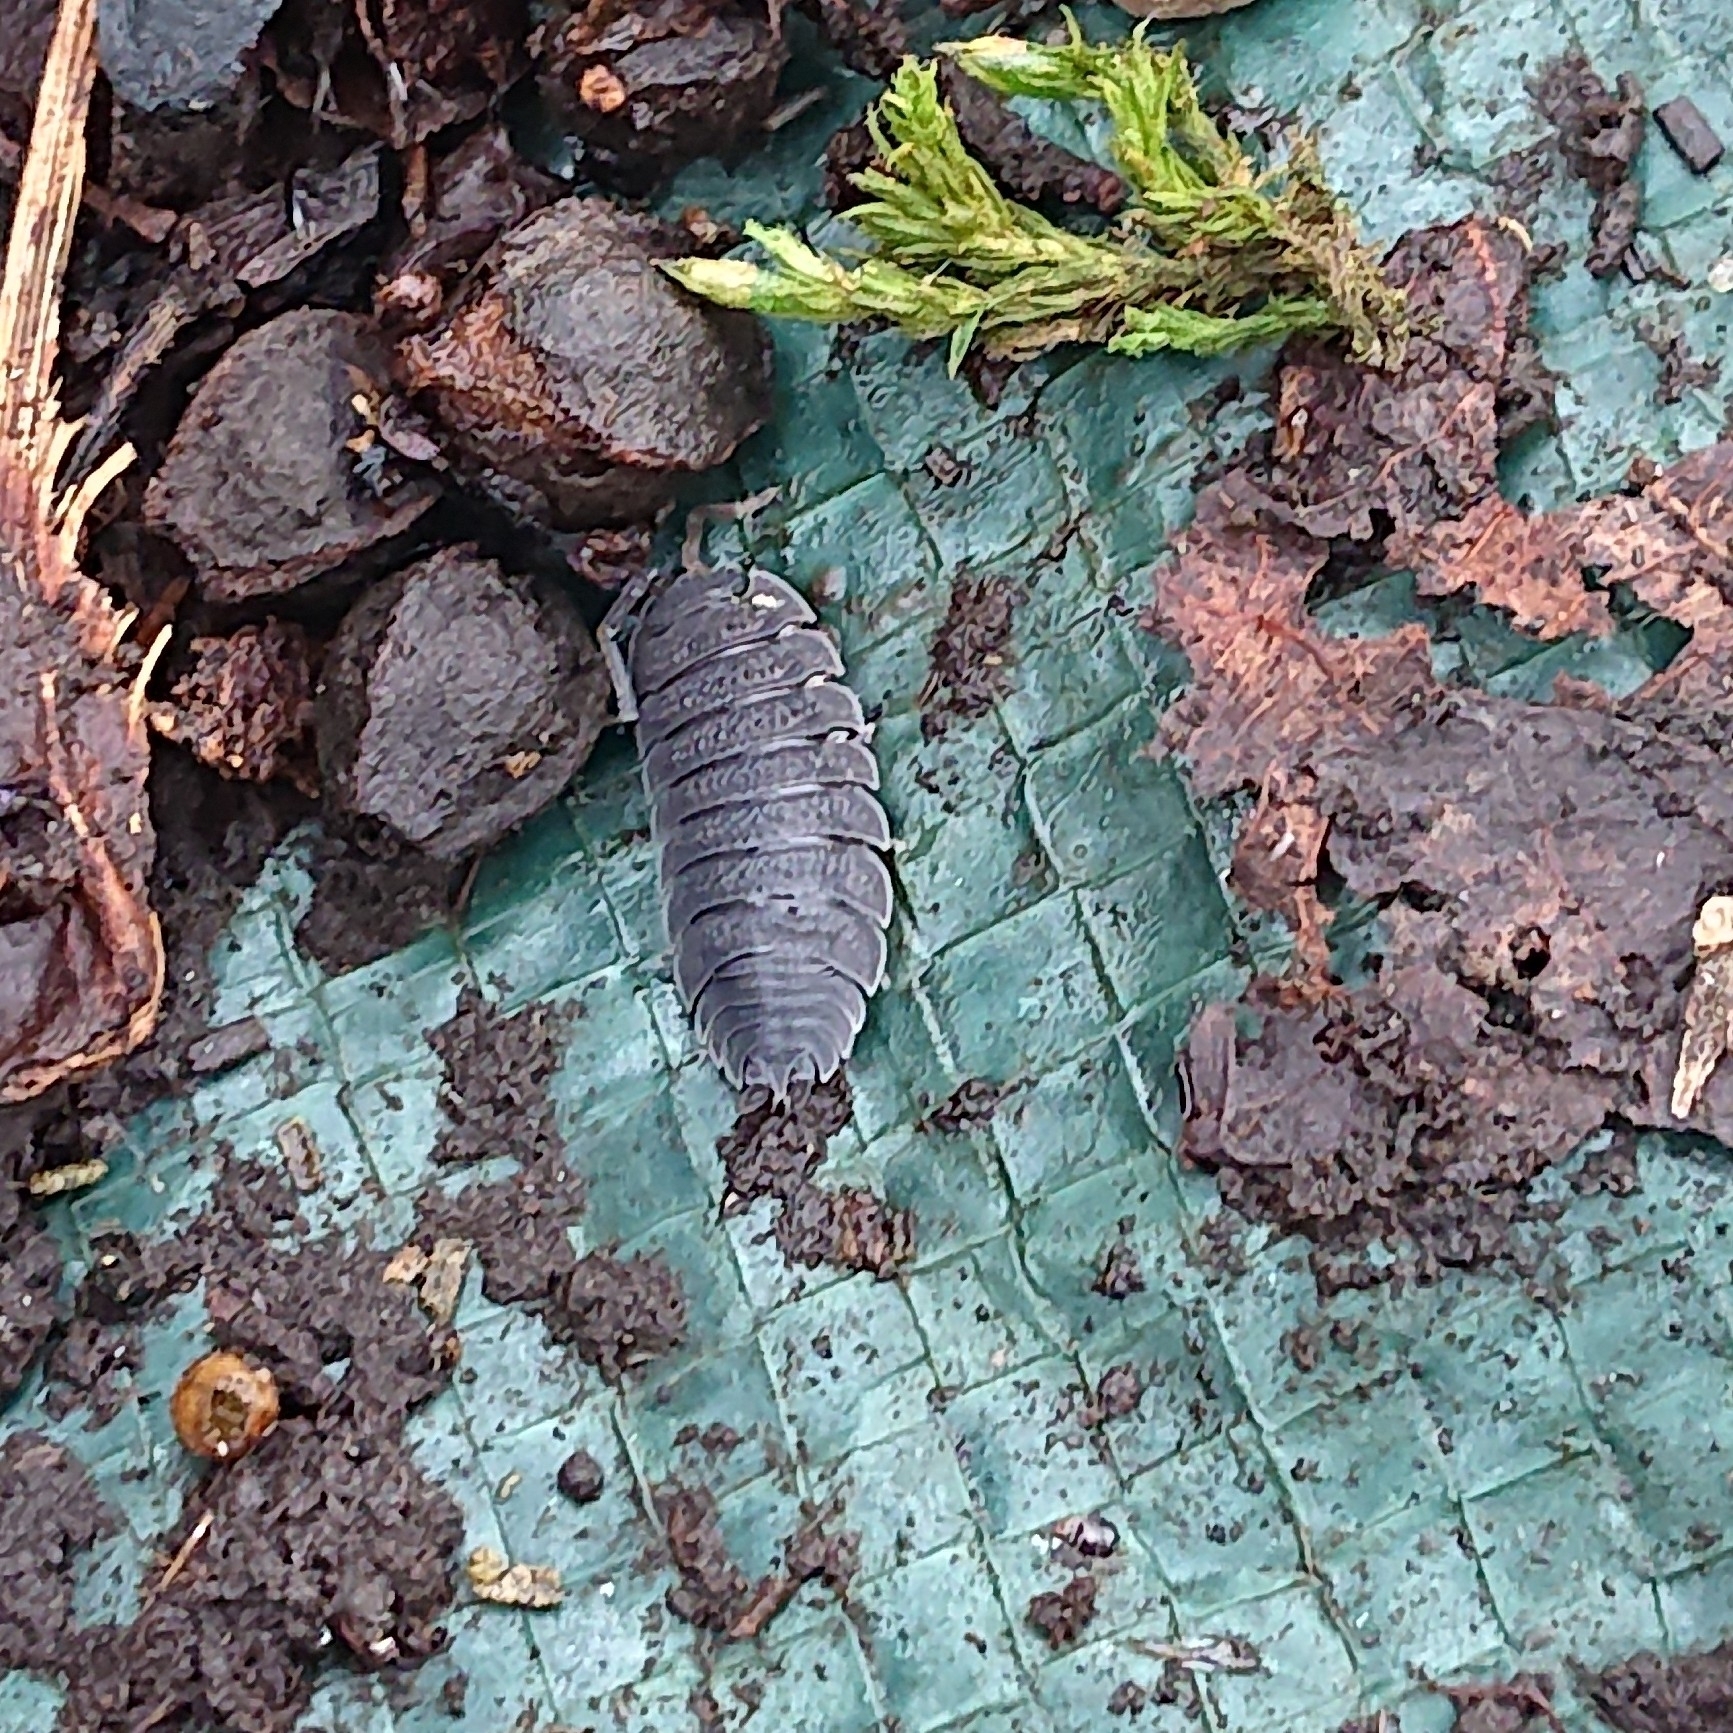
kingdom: Animalia
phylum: Arthropoda
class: Malacostraca
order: Isopoda
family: Porcellionidae
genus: Porcellio
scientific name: Porcellio scaber
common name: Common rough woodlouse
